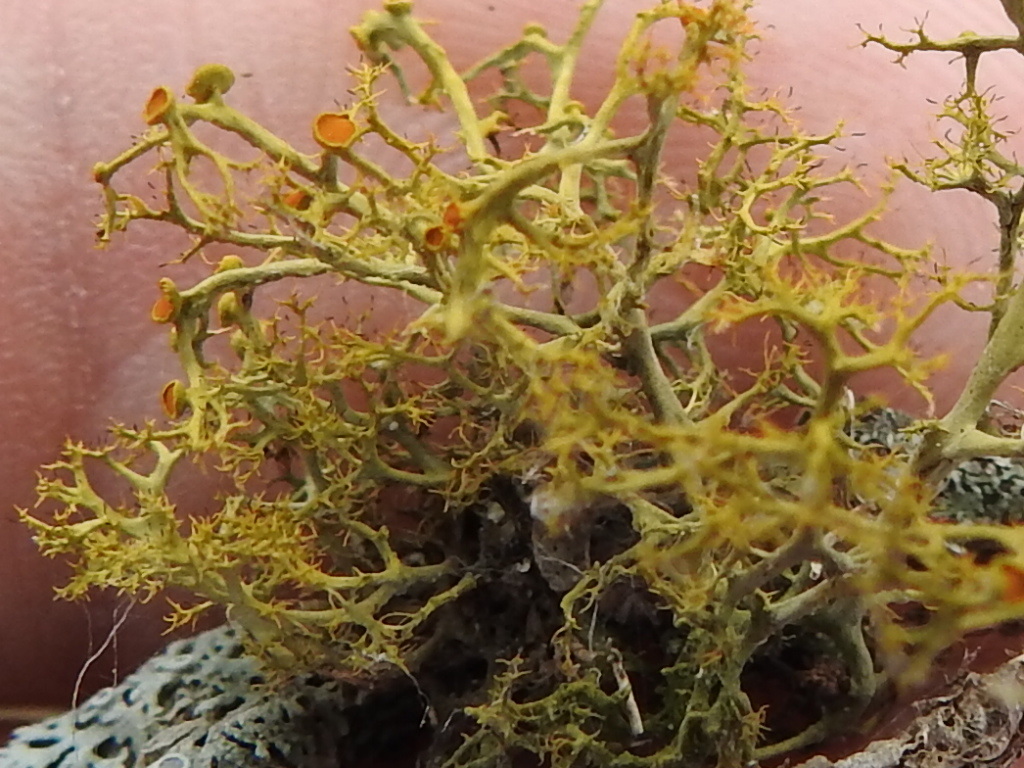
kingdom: Fungi
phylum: Ascomycota
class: Lecanoromycetes
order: Teloschistales
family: Teloschistaceae
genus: Teloschistes
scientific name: Teloschistes exilis
